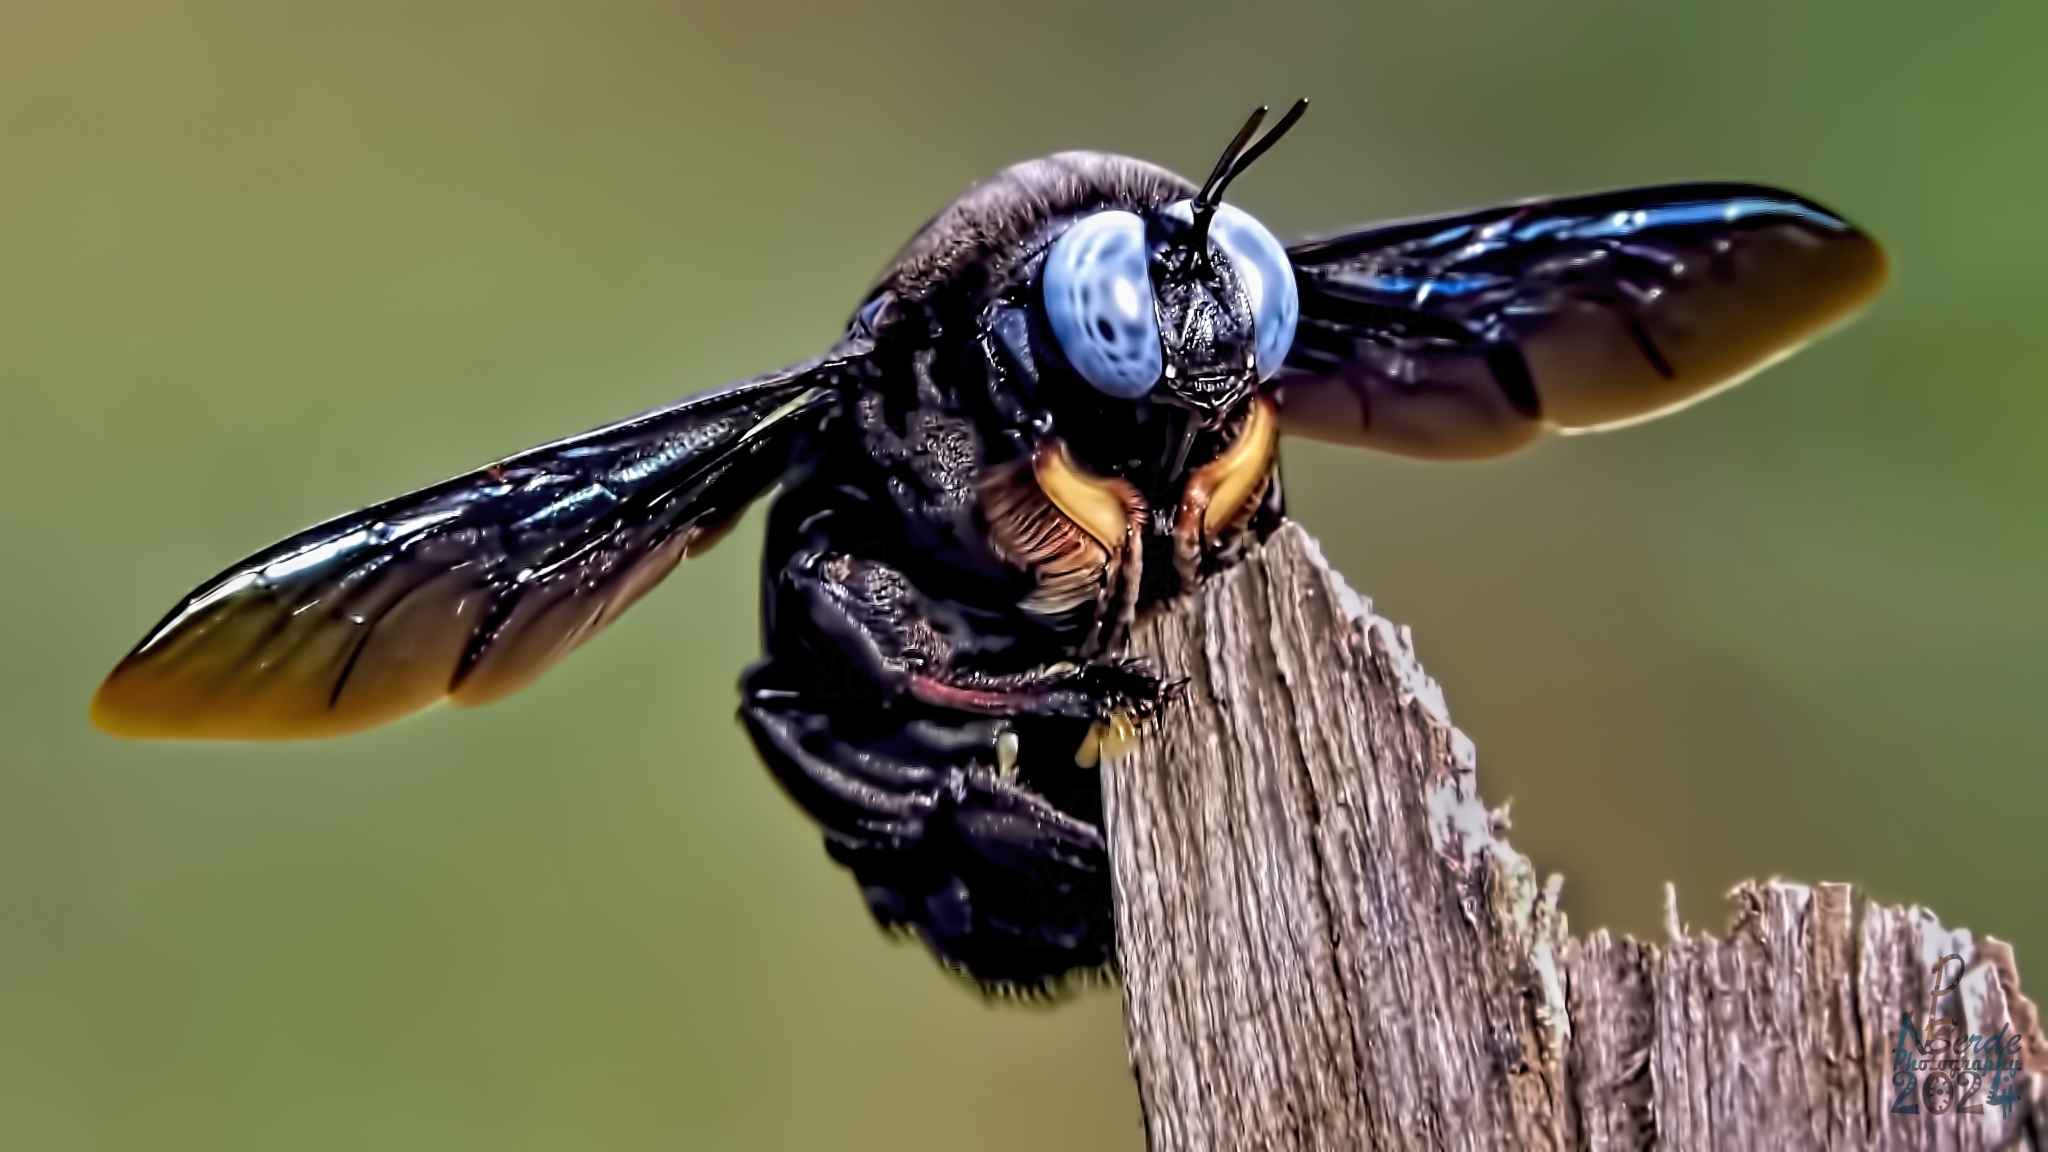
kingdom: Animalia
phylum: Arthropoda
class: Insecta
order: Hymenoptera
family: Apidae
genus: Xylocopa
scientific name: Xylocopa tenuiscapa
